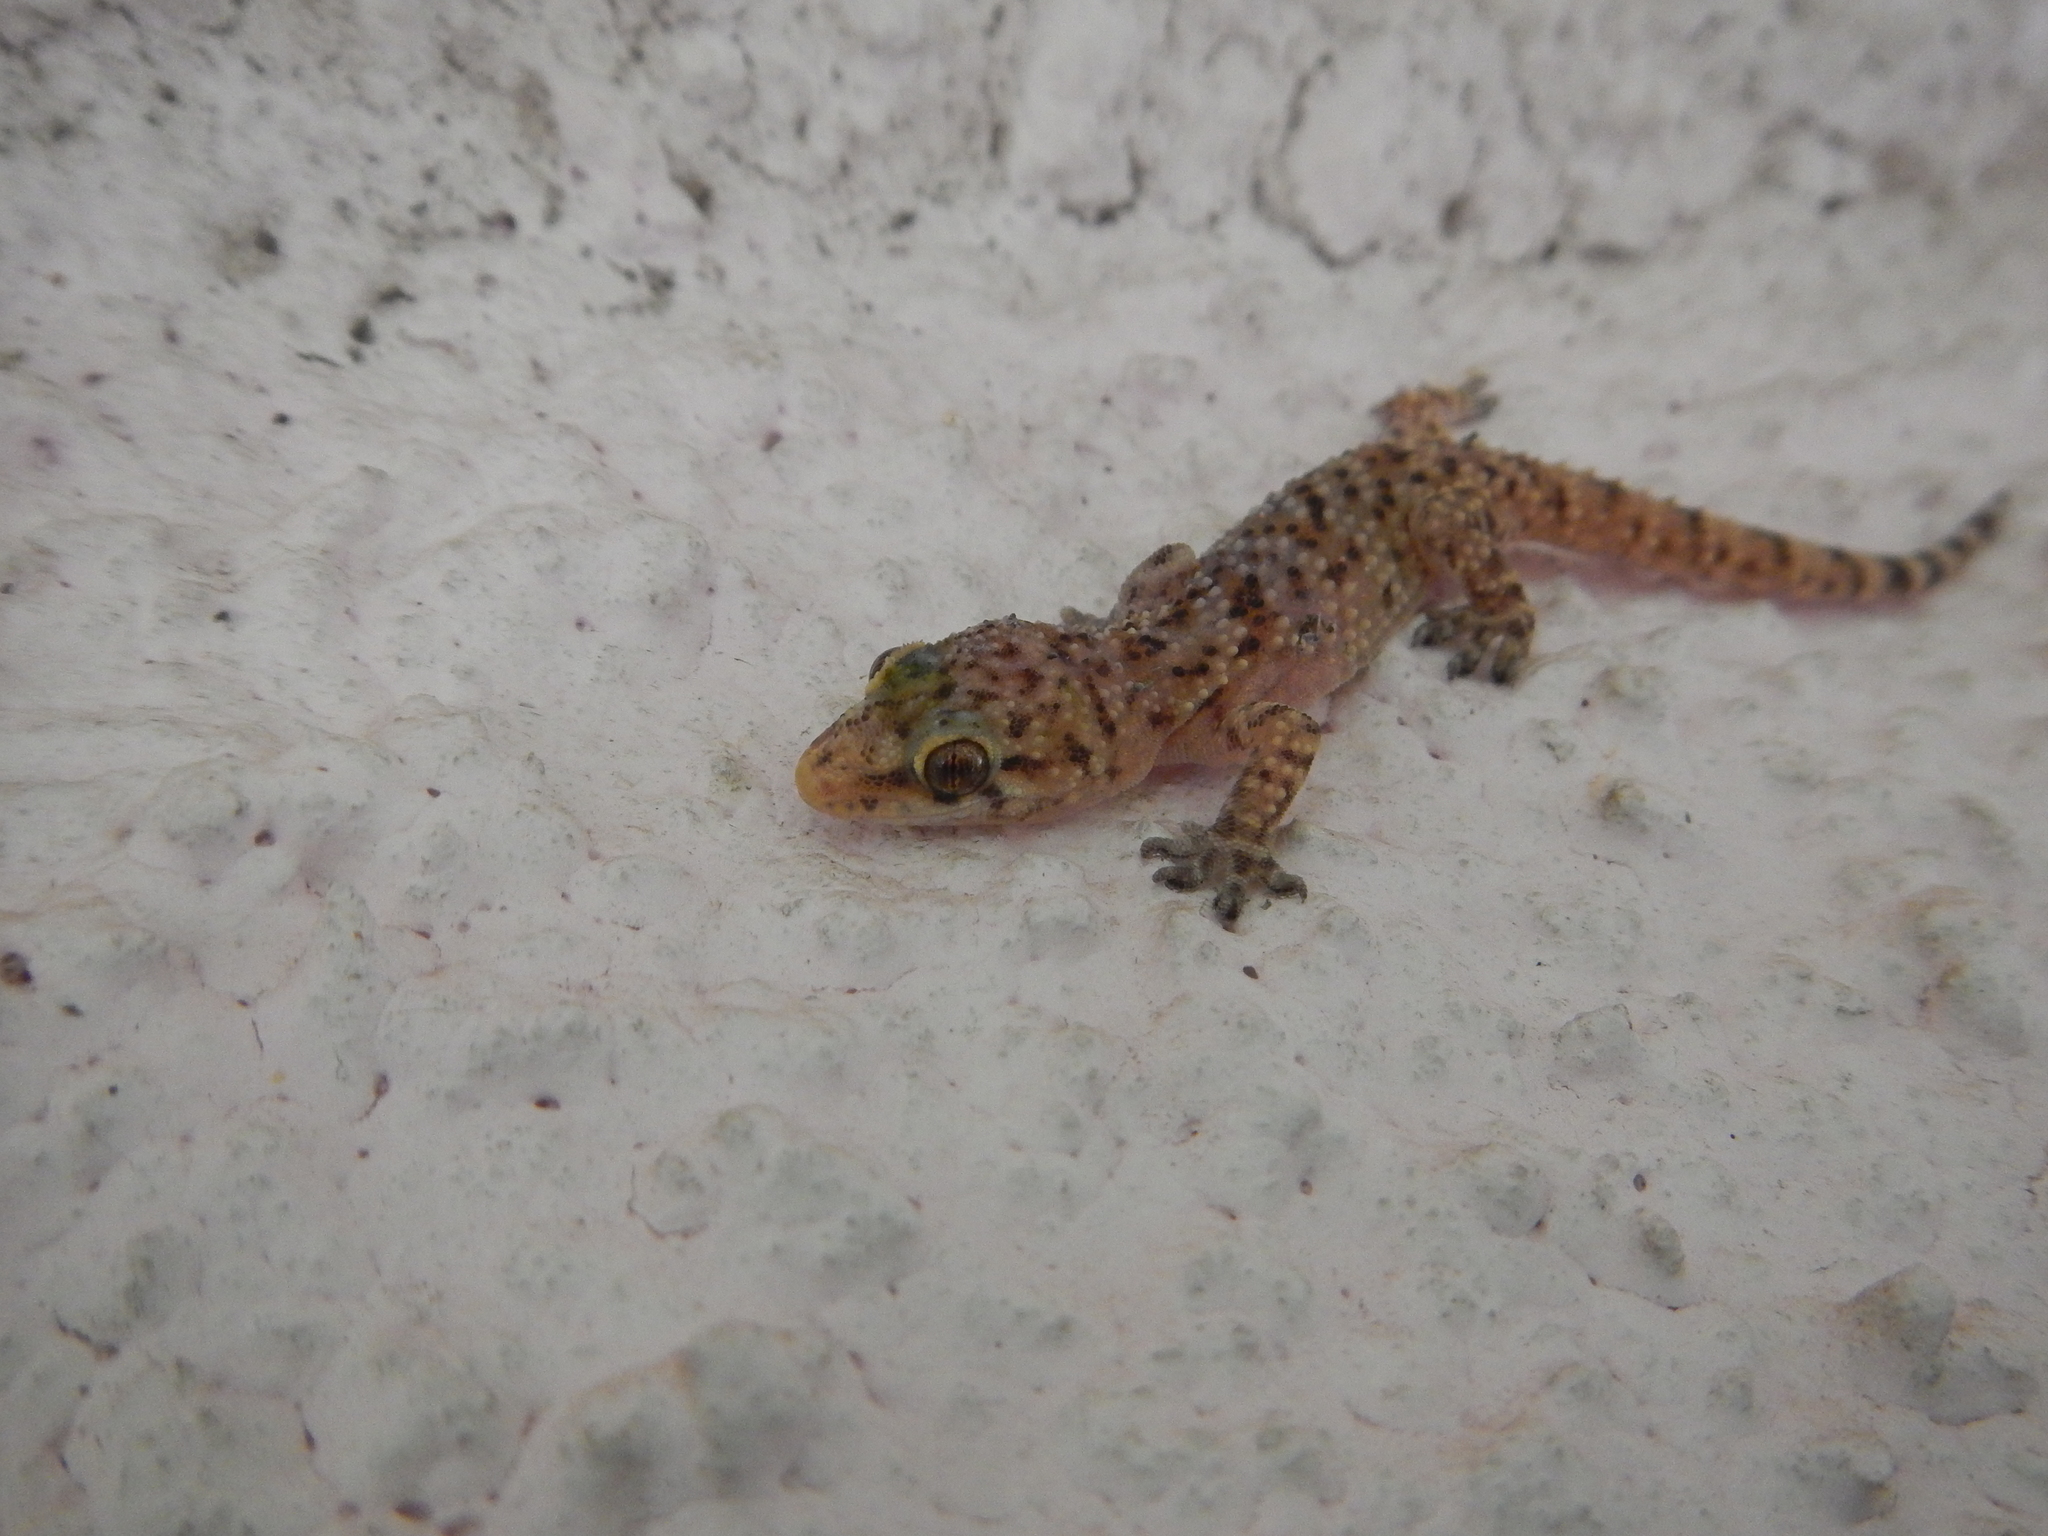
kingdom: Animalia
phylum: Chordata
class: Squamata
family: Gekkonidae
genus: Hemidactylus
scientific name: Hemidactylus turcicus
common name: Turkish gecko
